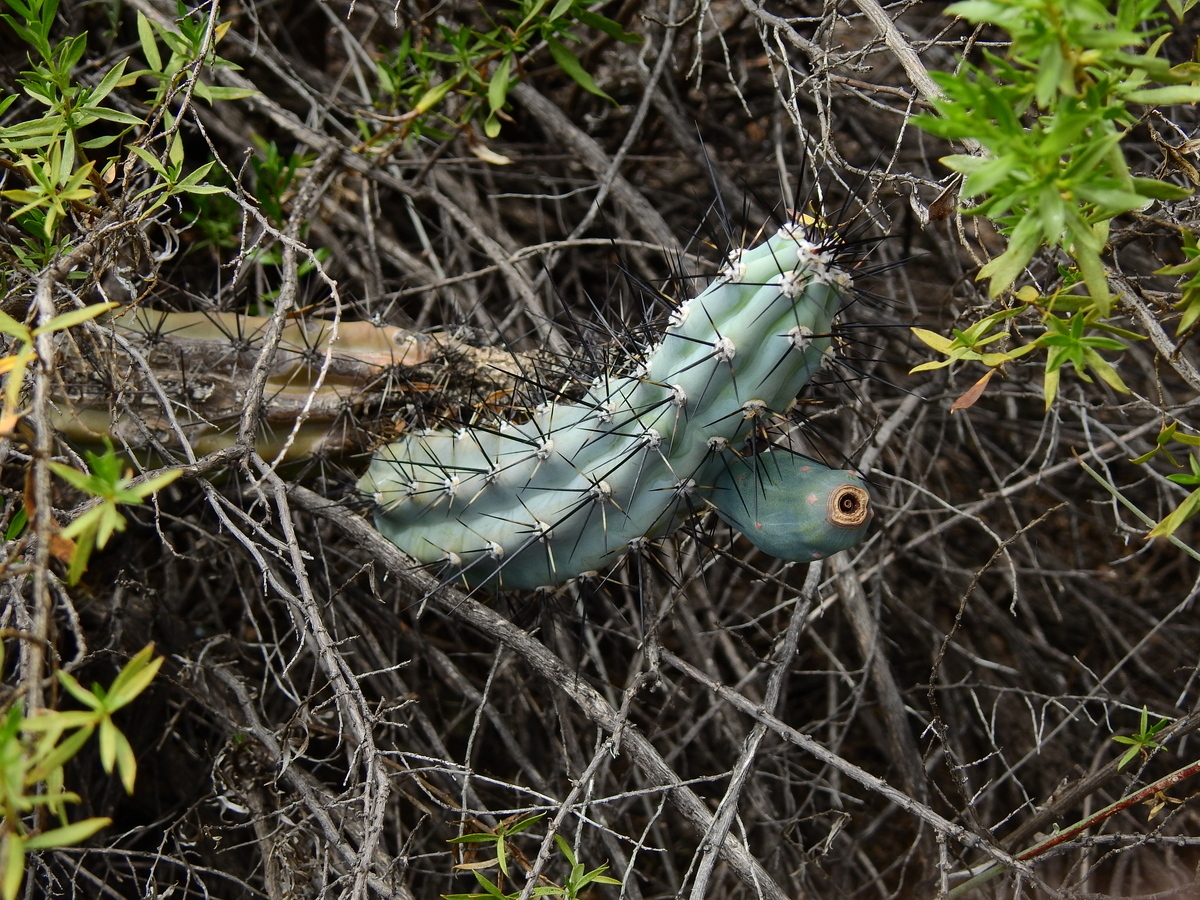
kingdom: Plantae
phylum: Tracheophyta
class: Magnoliopsida
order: Caryophyllales
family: Cactaceae
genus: Cereus
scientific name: Cereus aethiops
